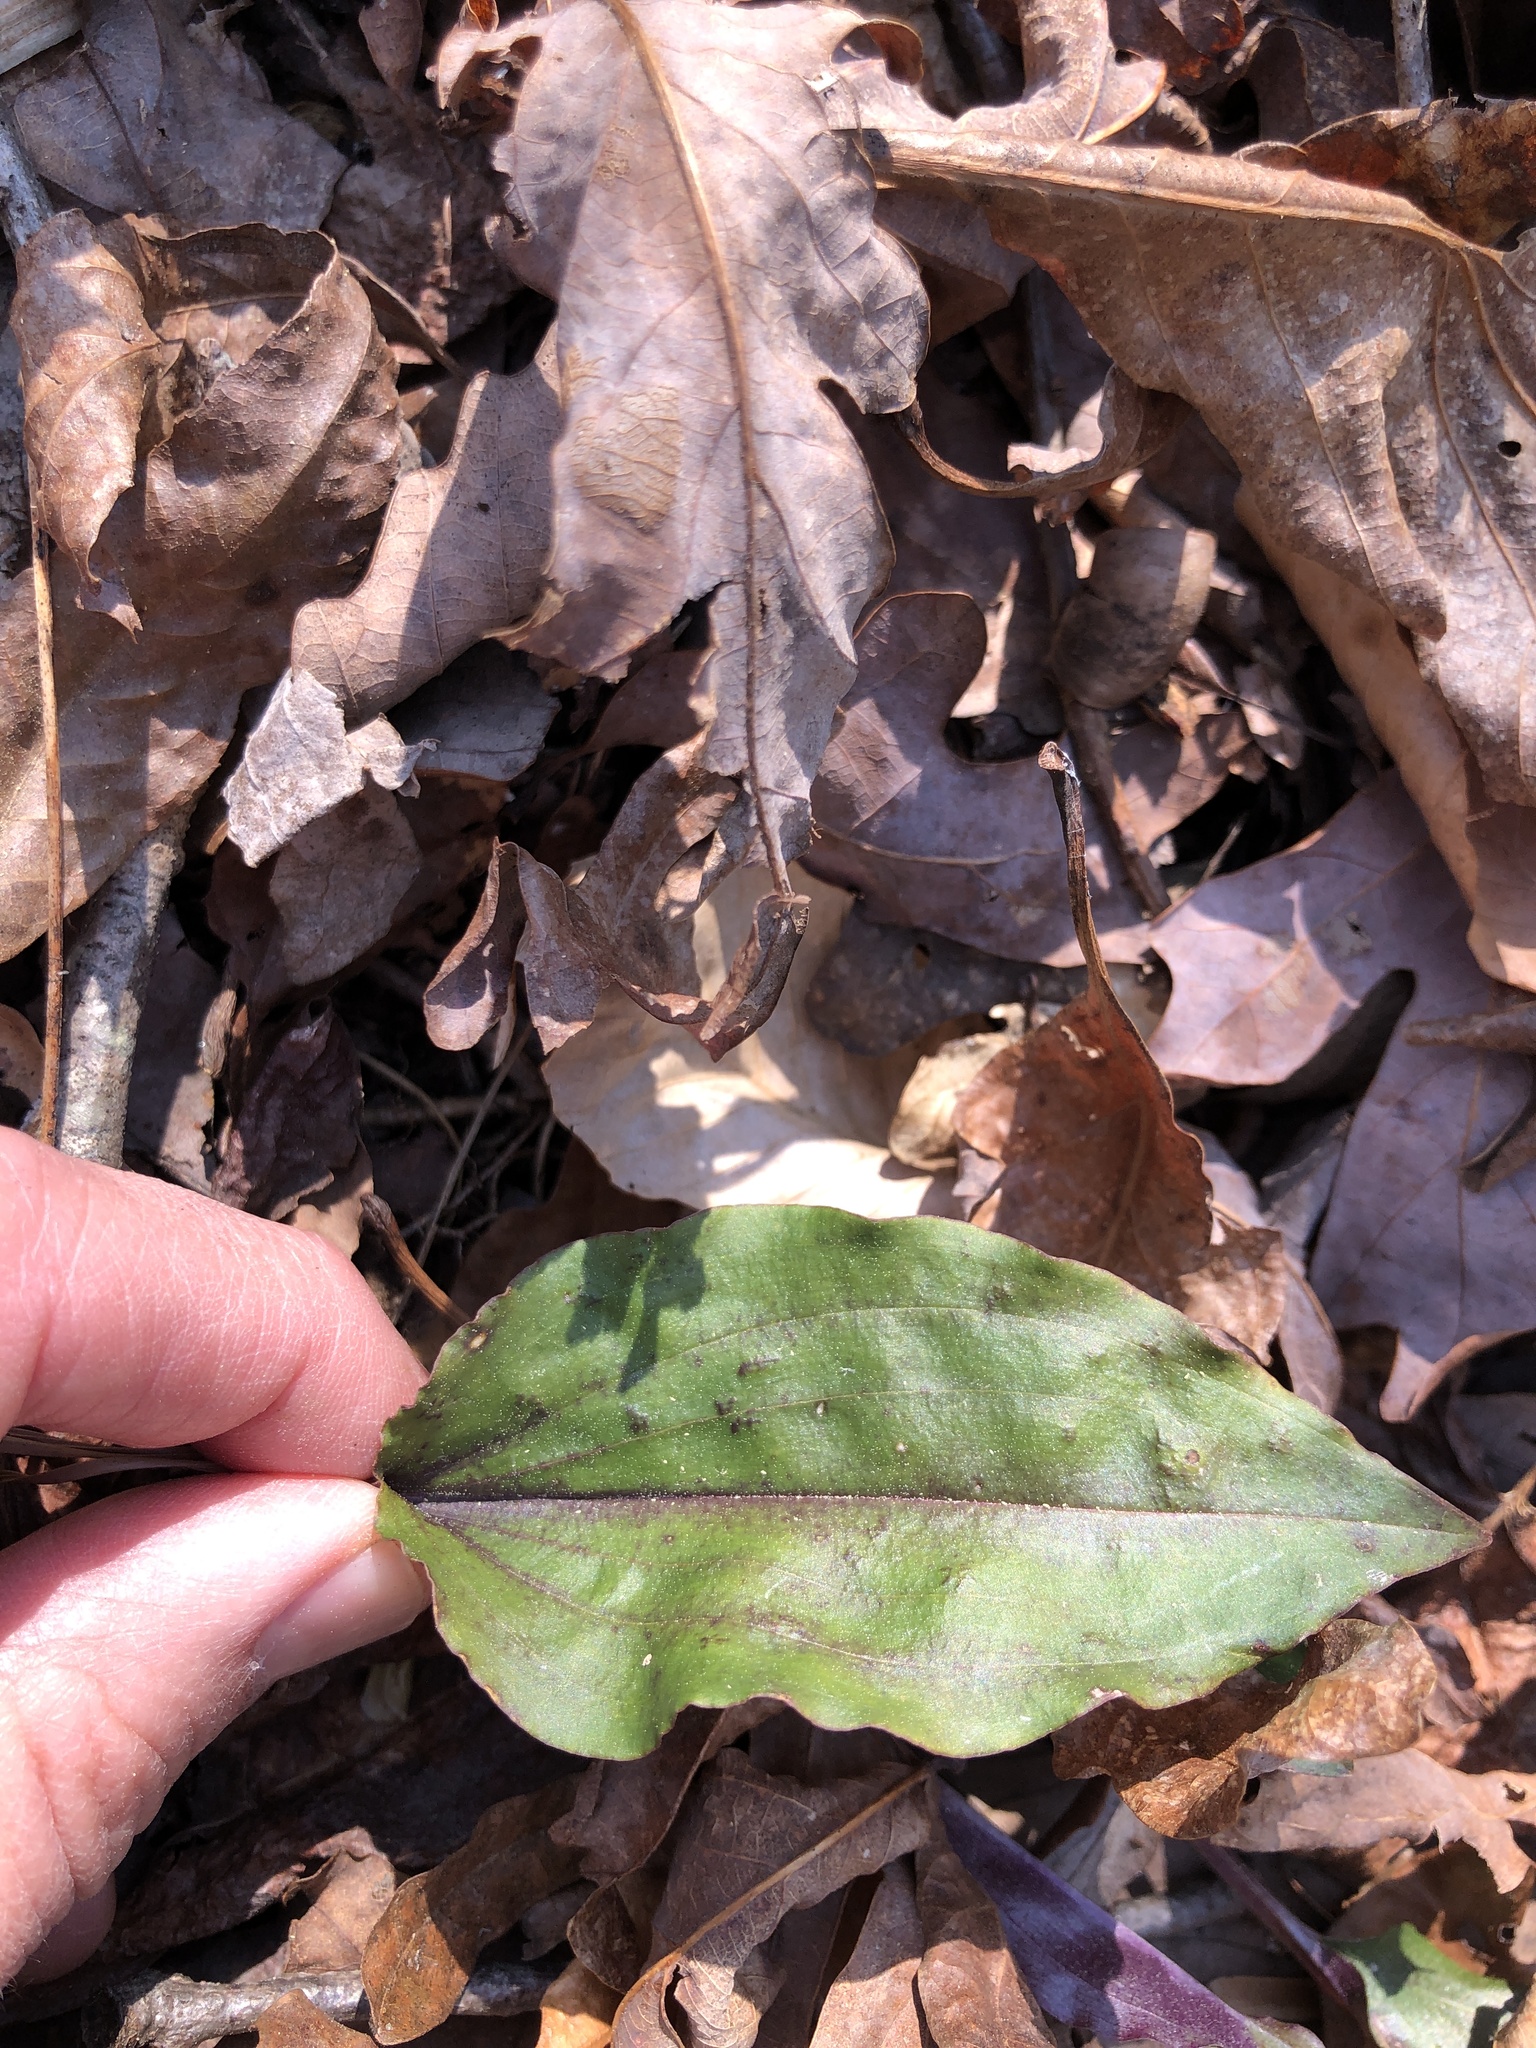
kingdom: Plantae
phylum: Tracheophyta
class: Liliopsida
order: Asparagales
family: Orchidaceae
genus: Tipularia
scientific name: Tipularia discolor
